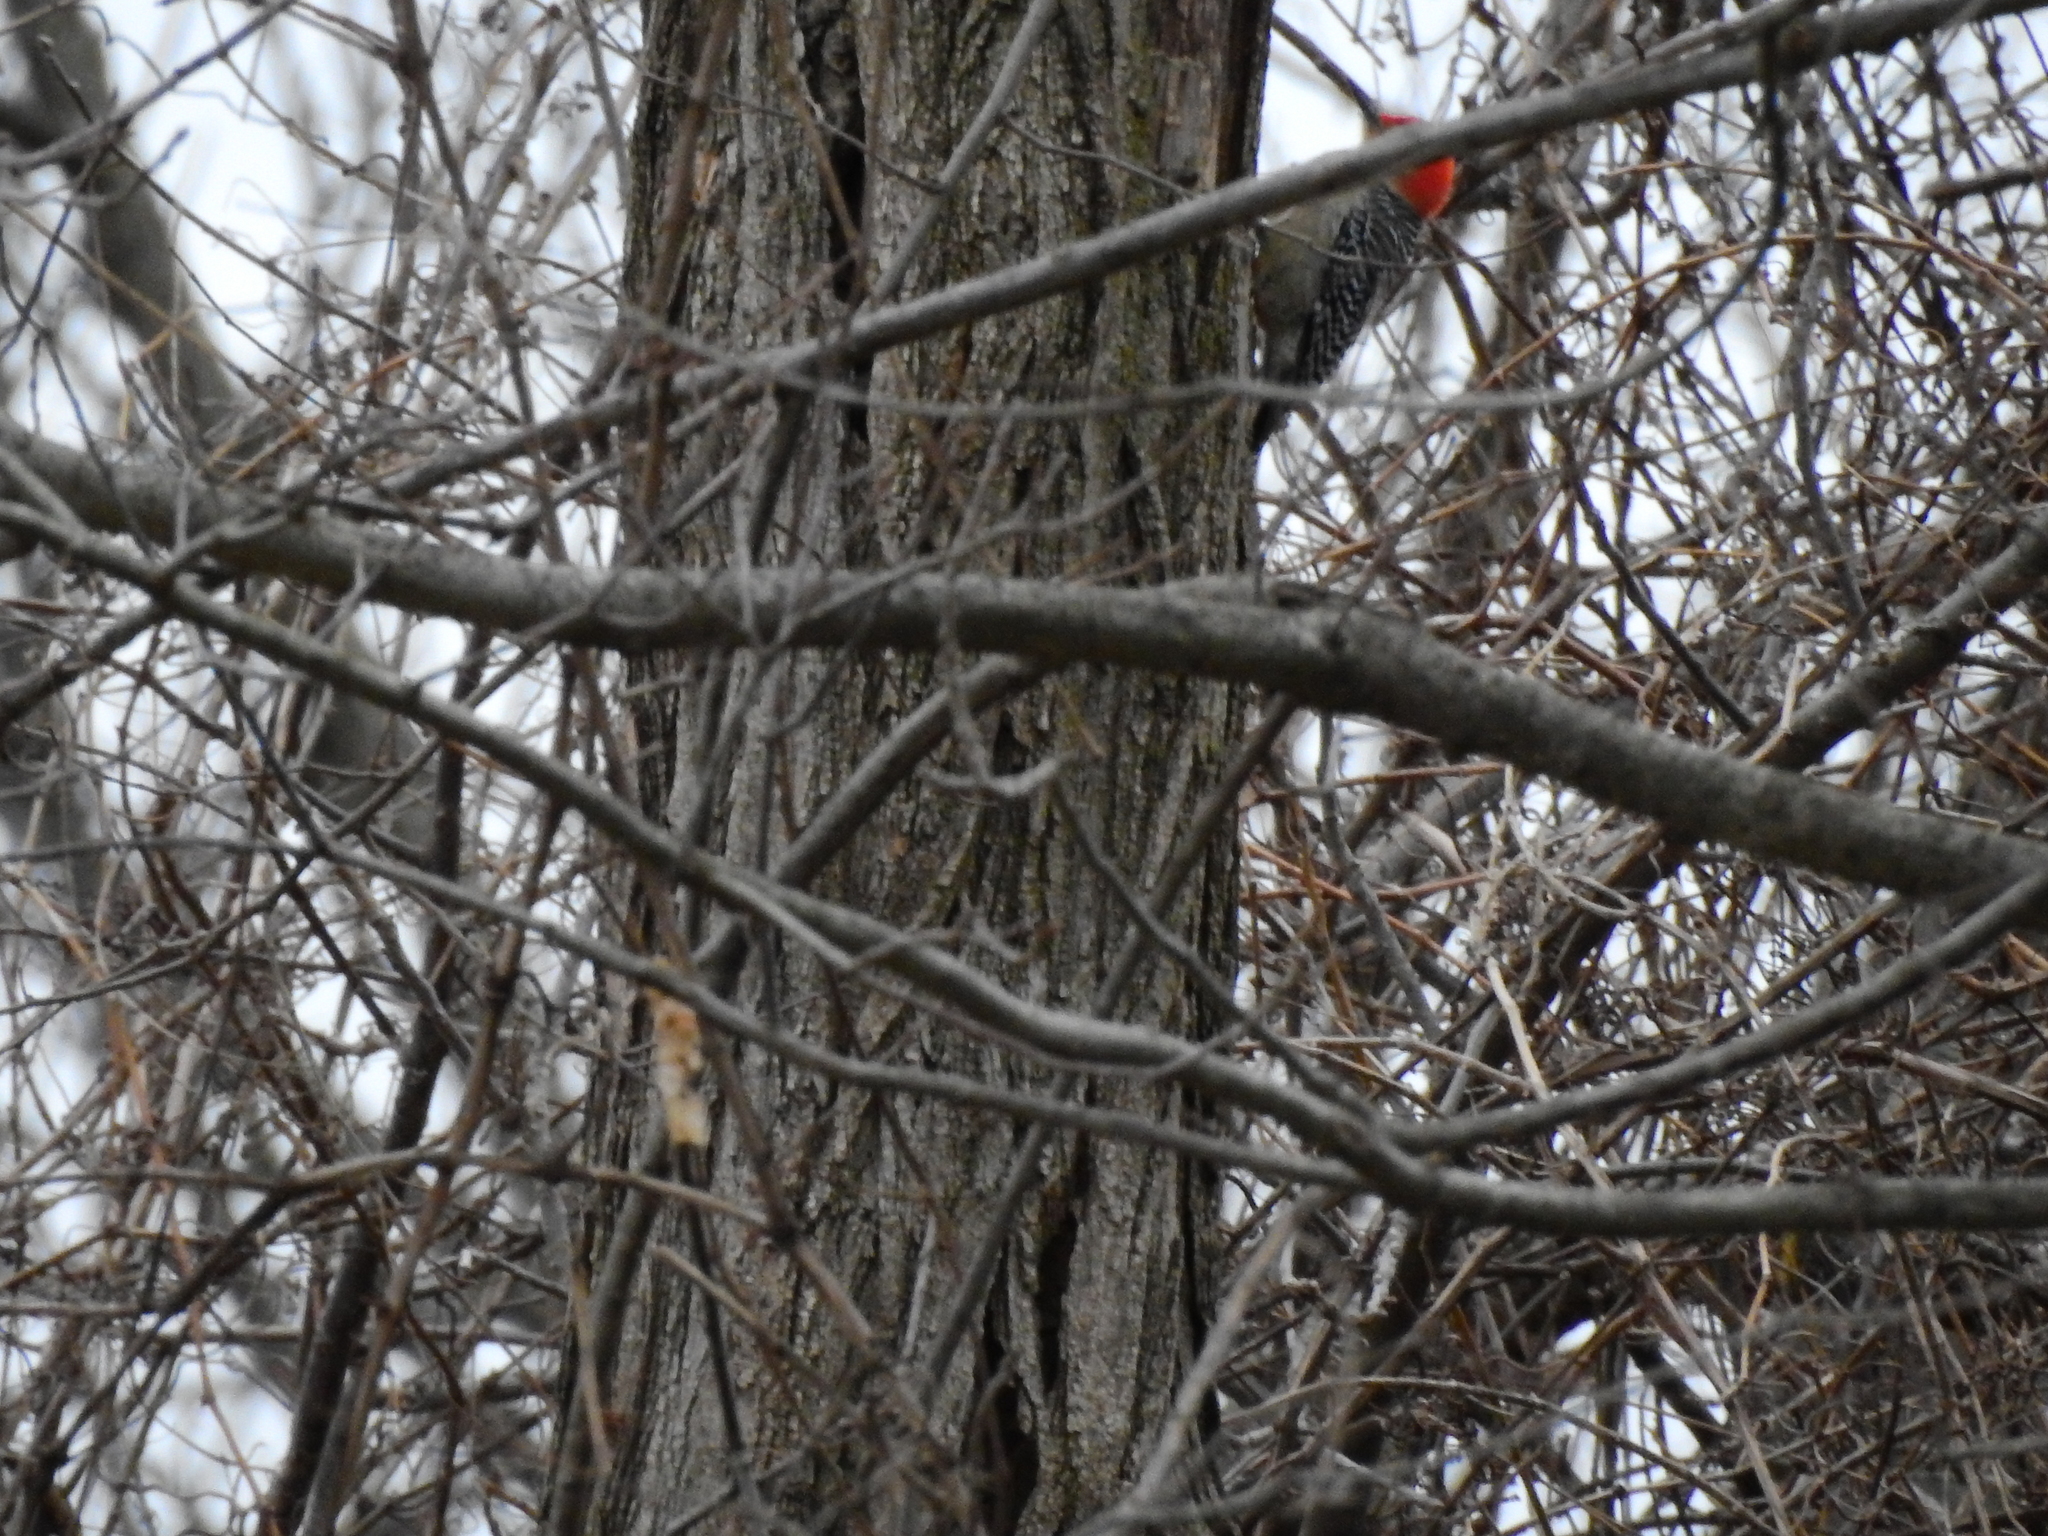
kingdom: Animalia
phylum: Chordata
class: Aves
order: Piciformes
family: Picidae
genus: Melanerpes
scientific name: Melanerpes carolinus
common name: Red-bellied woodpecker
